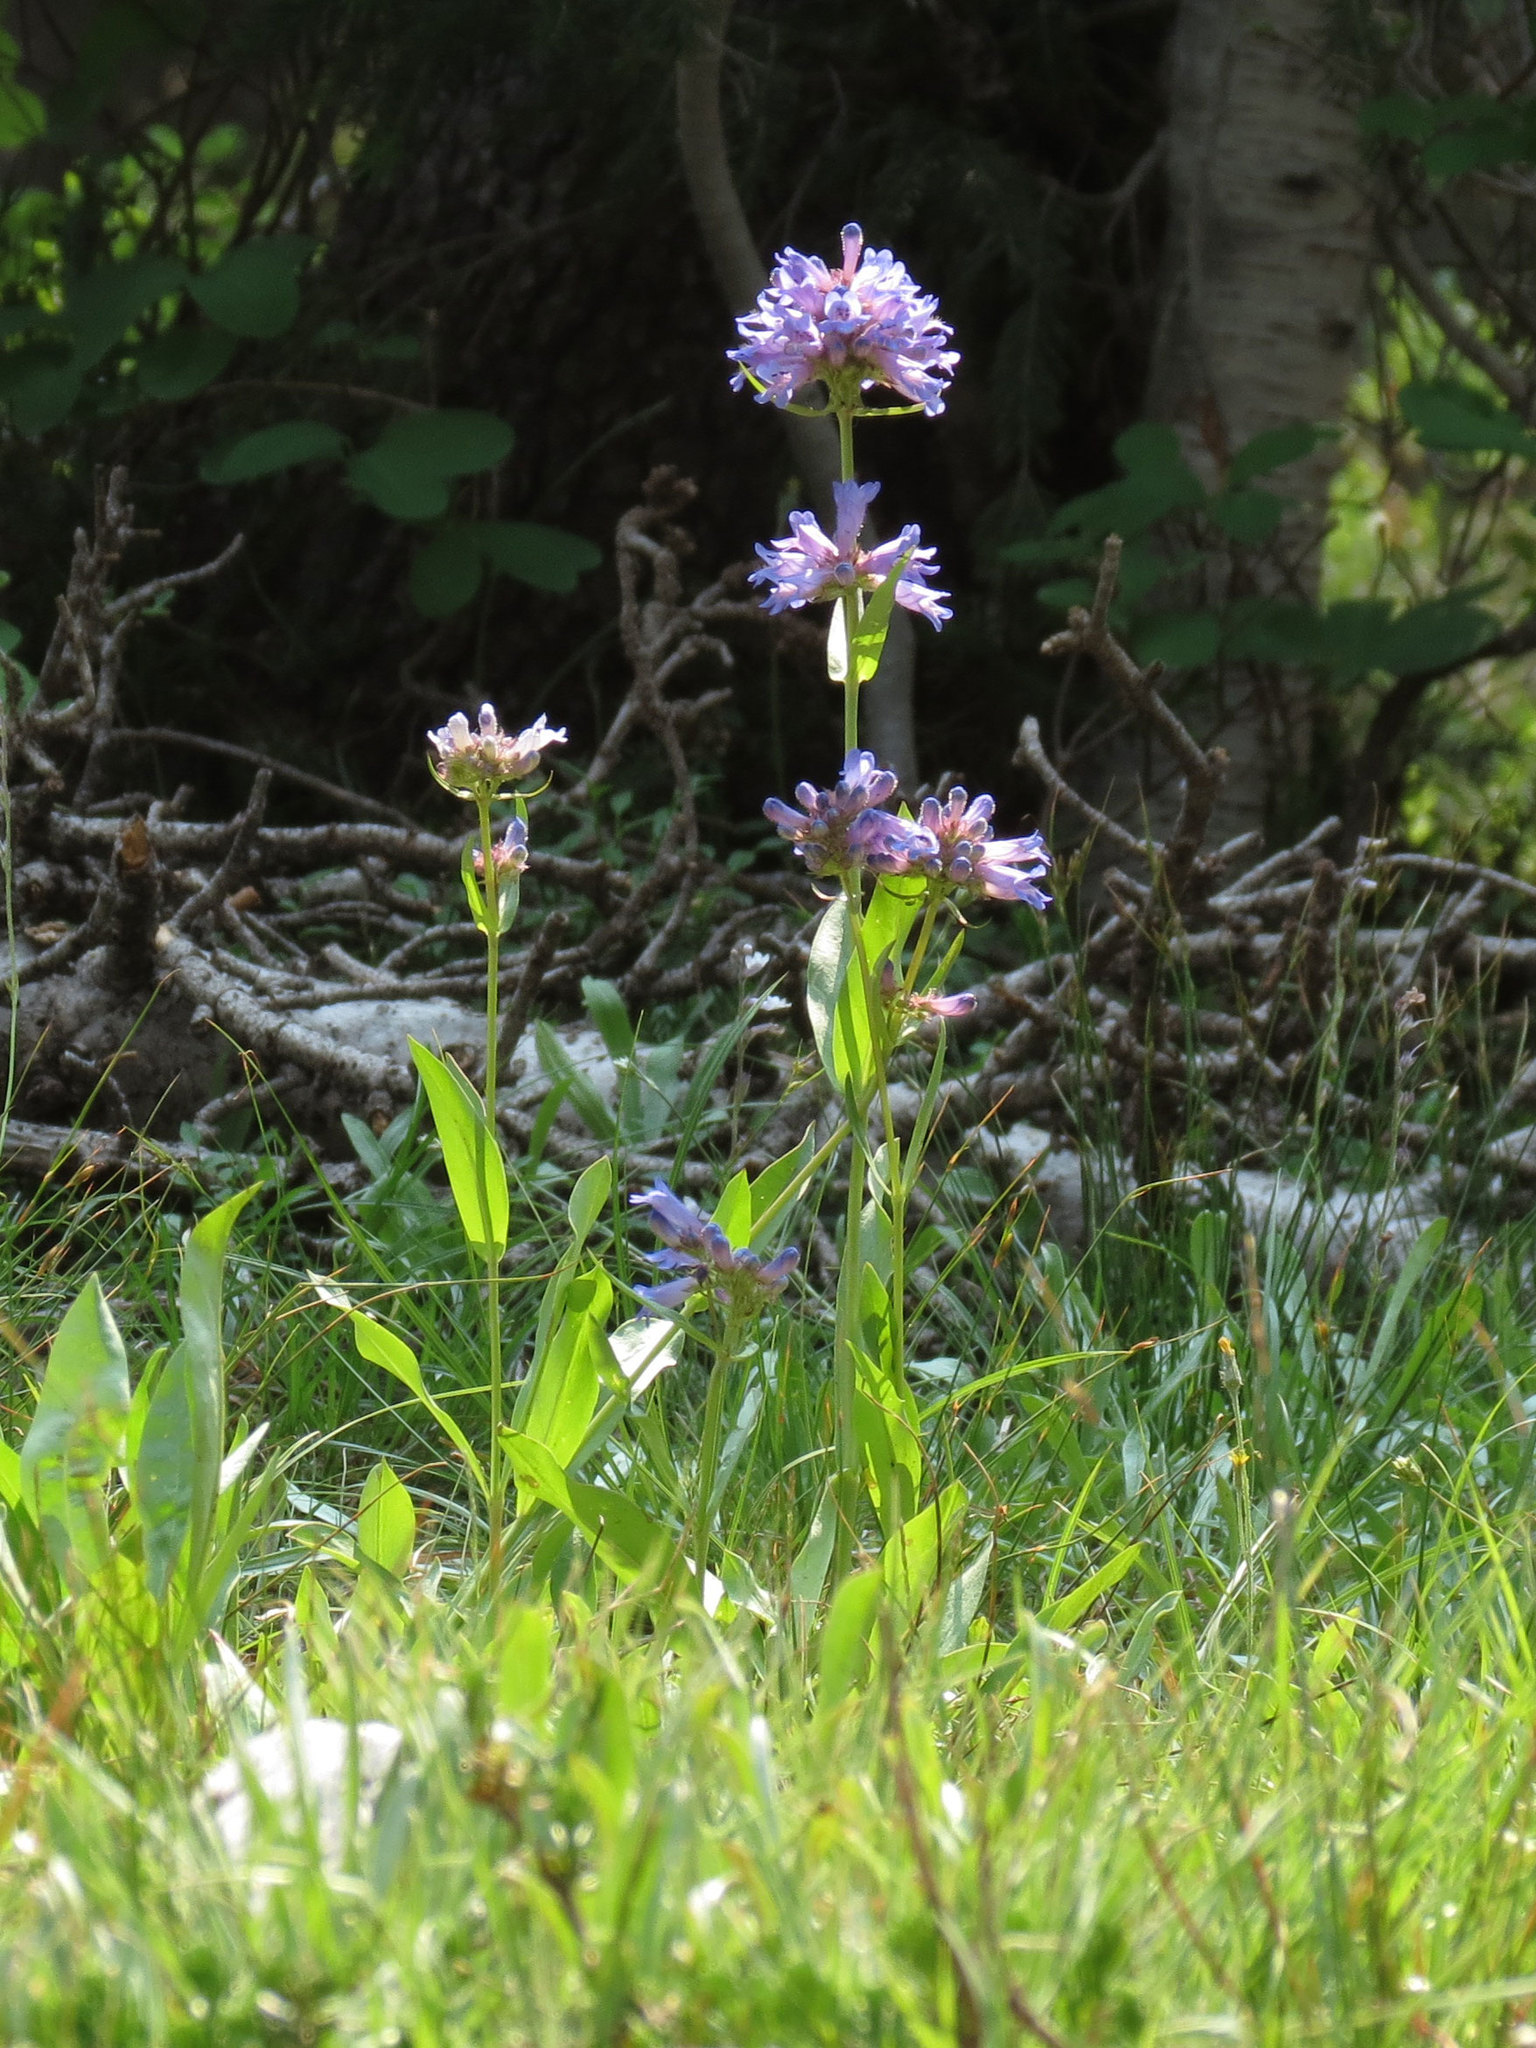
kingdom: Plantae
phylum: Tracheophyta
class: Magnoliopsida
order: Lamiales
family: Plantaginaceae
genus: Penstemon
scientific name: Penstemon rydbergii
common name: Rydberg's beardtongue
